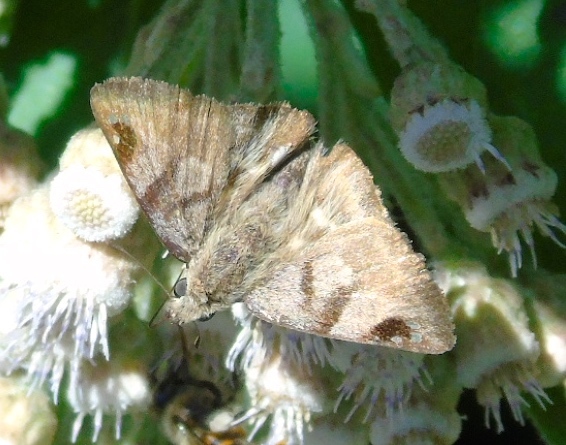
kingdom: Animalia
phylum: Arthropoda
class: Insecta
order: Lepidoptera
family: Hesperiidae
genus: Arteurotia
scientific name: Arteurotia tractipennis
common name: Starred skipper
